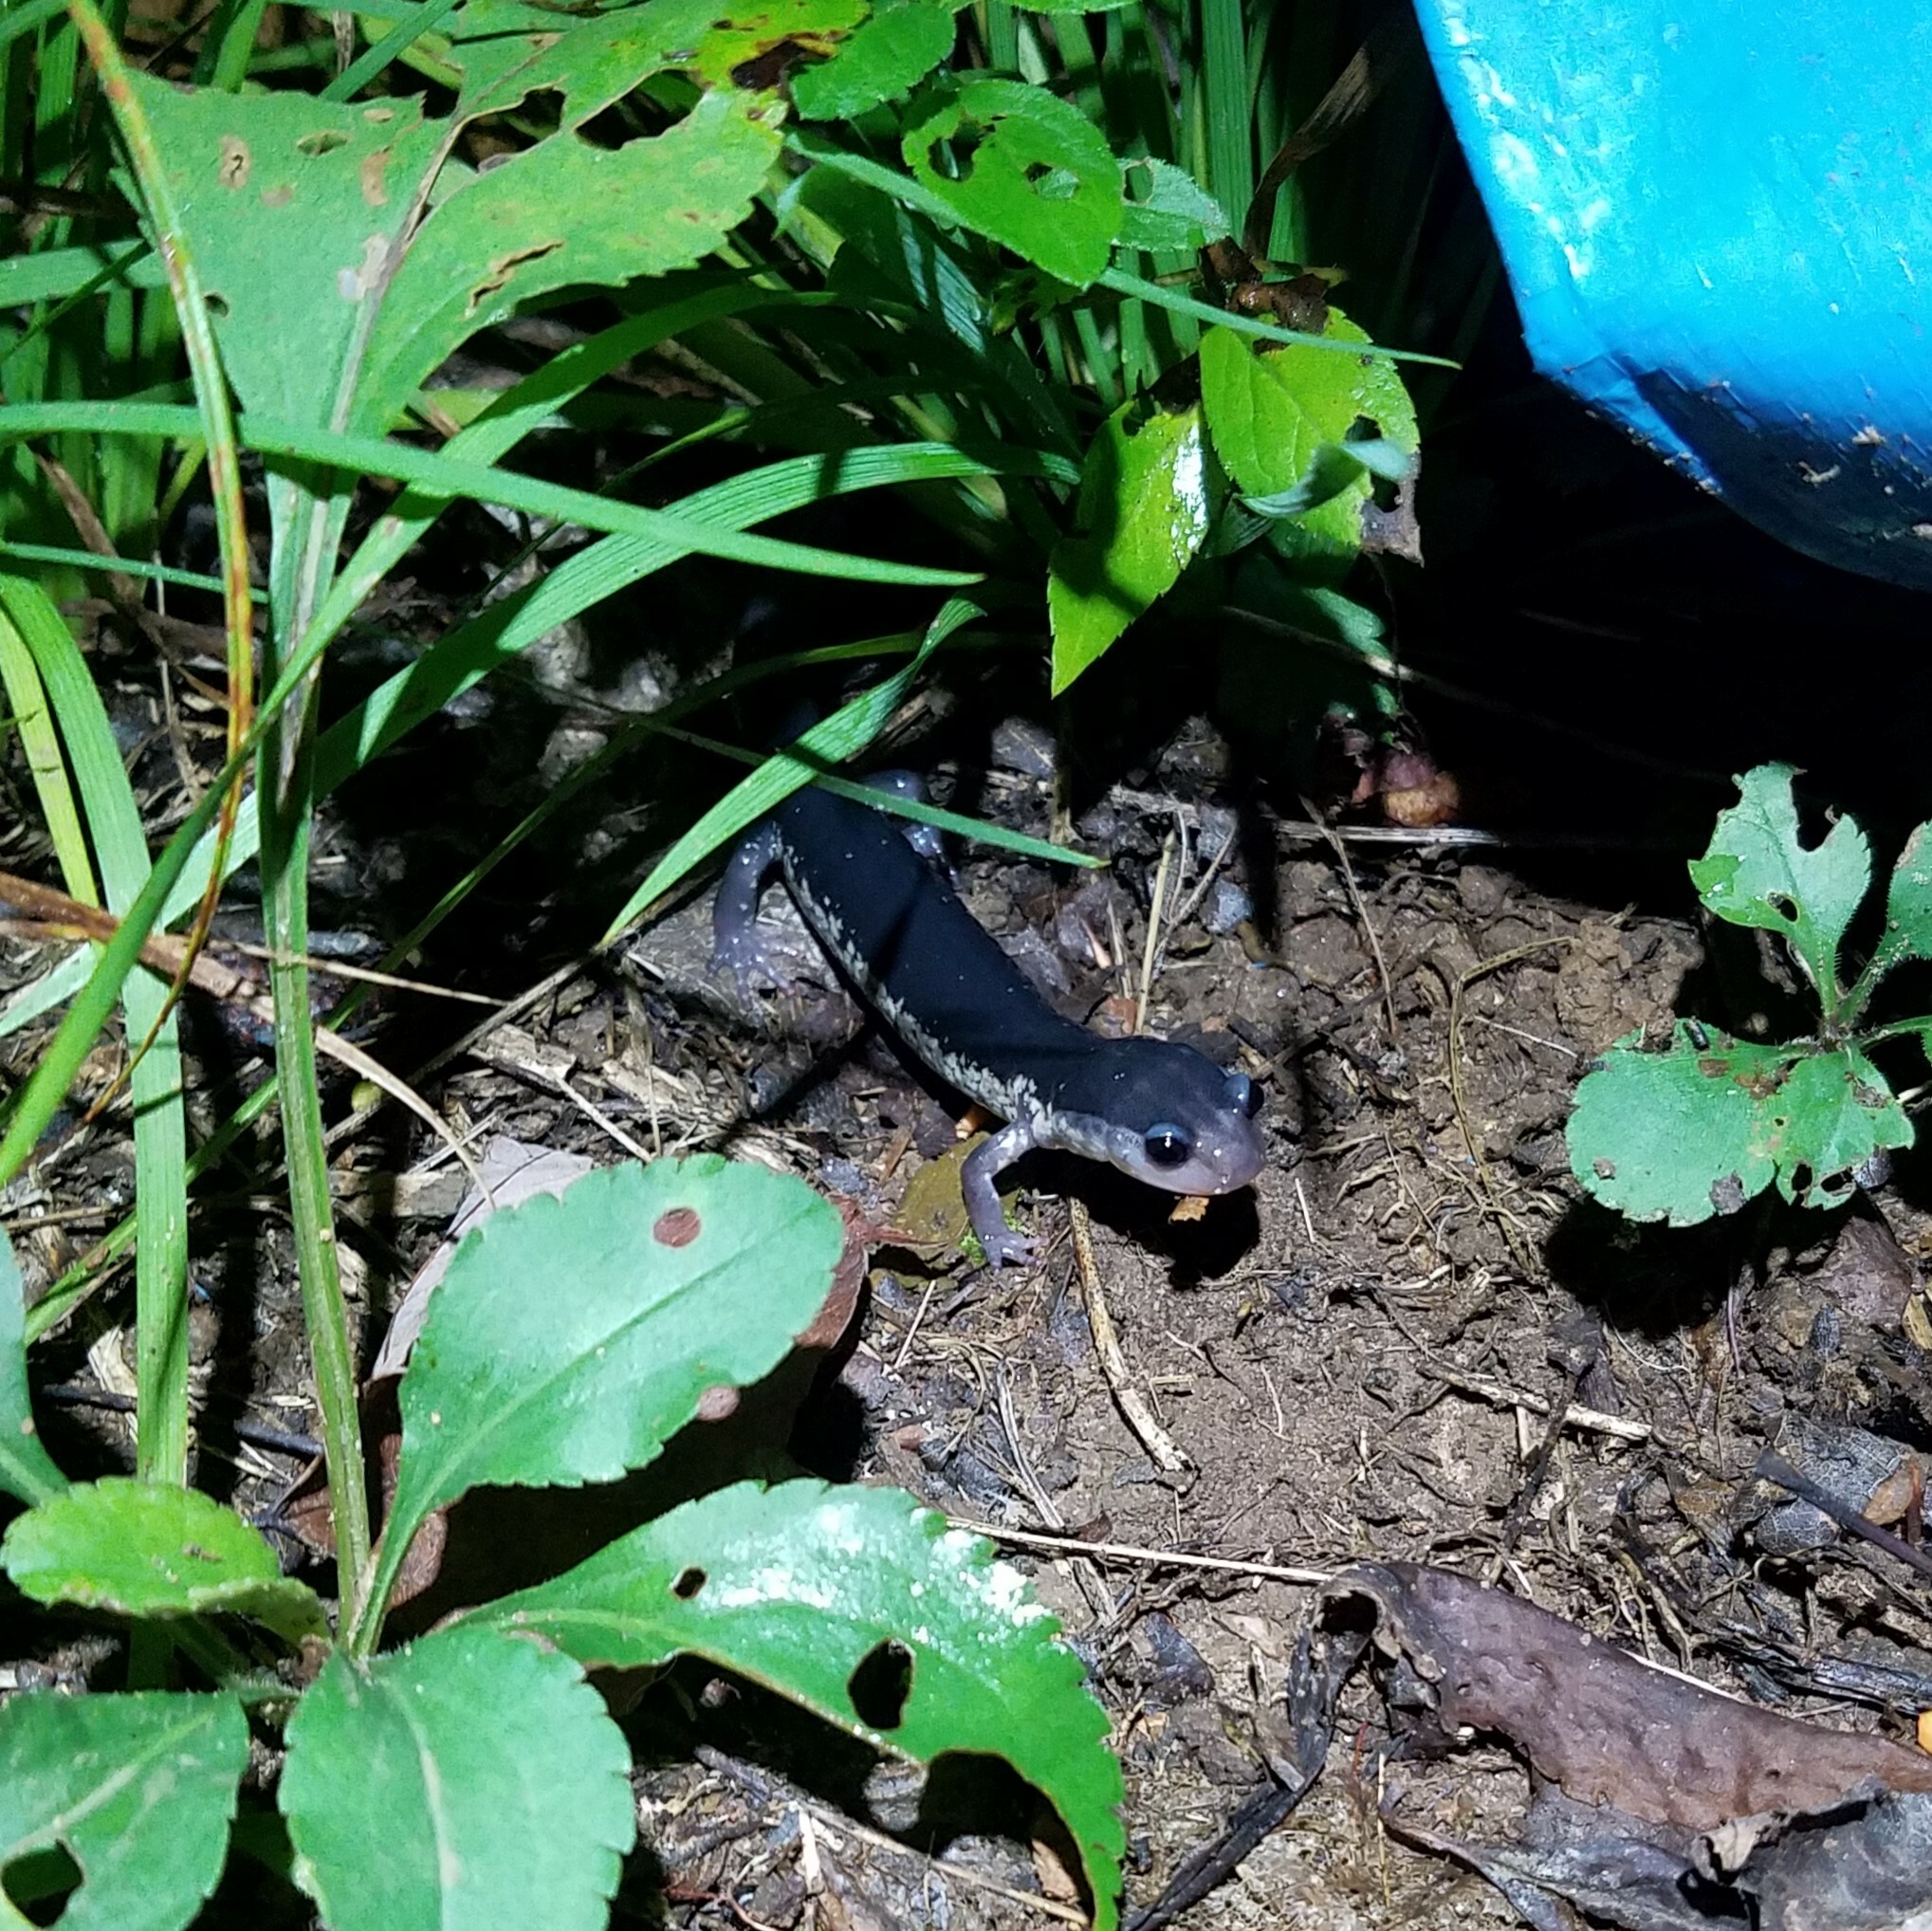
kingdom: Animalia
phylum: Chordata
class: Amphibia
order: Caudata
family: Plethodontidae
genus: Plethodon
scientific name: Plethodon chattahoochee
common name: Chattahoochee slimy salamander
